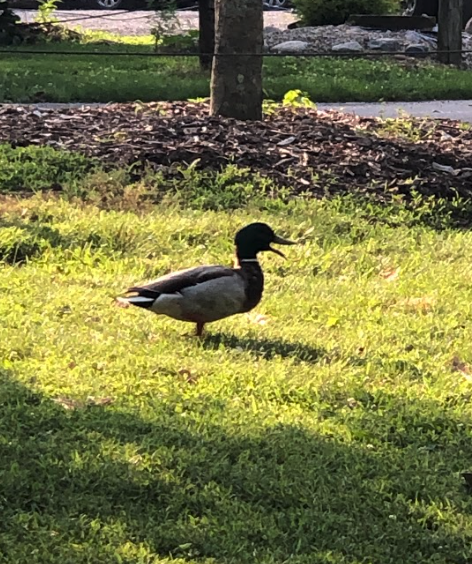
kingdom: Animalia
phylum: Chordata
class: Aves
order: Anseriformes
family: Anatidae
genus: Anas
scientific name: Anas platyrhynchos
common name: Mallard
